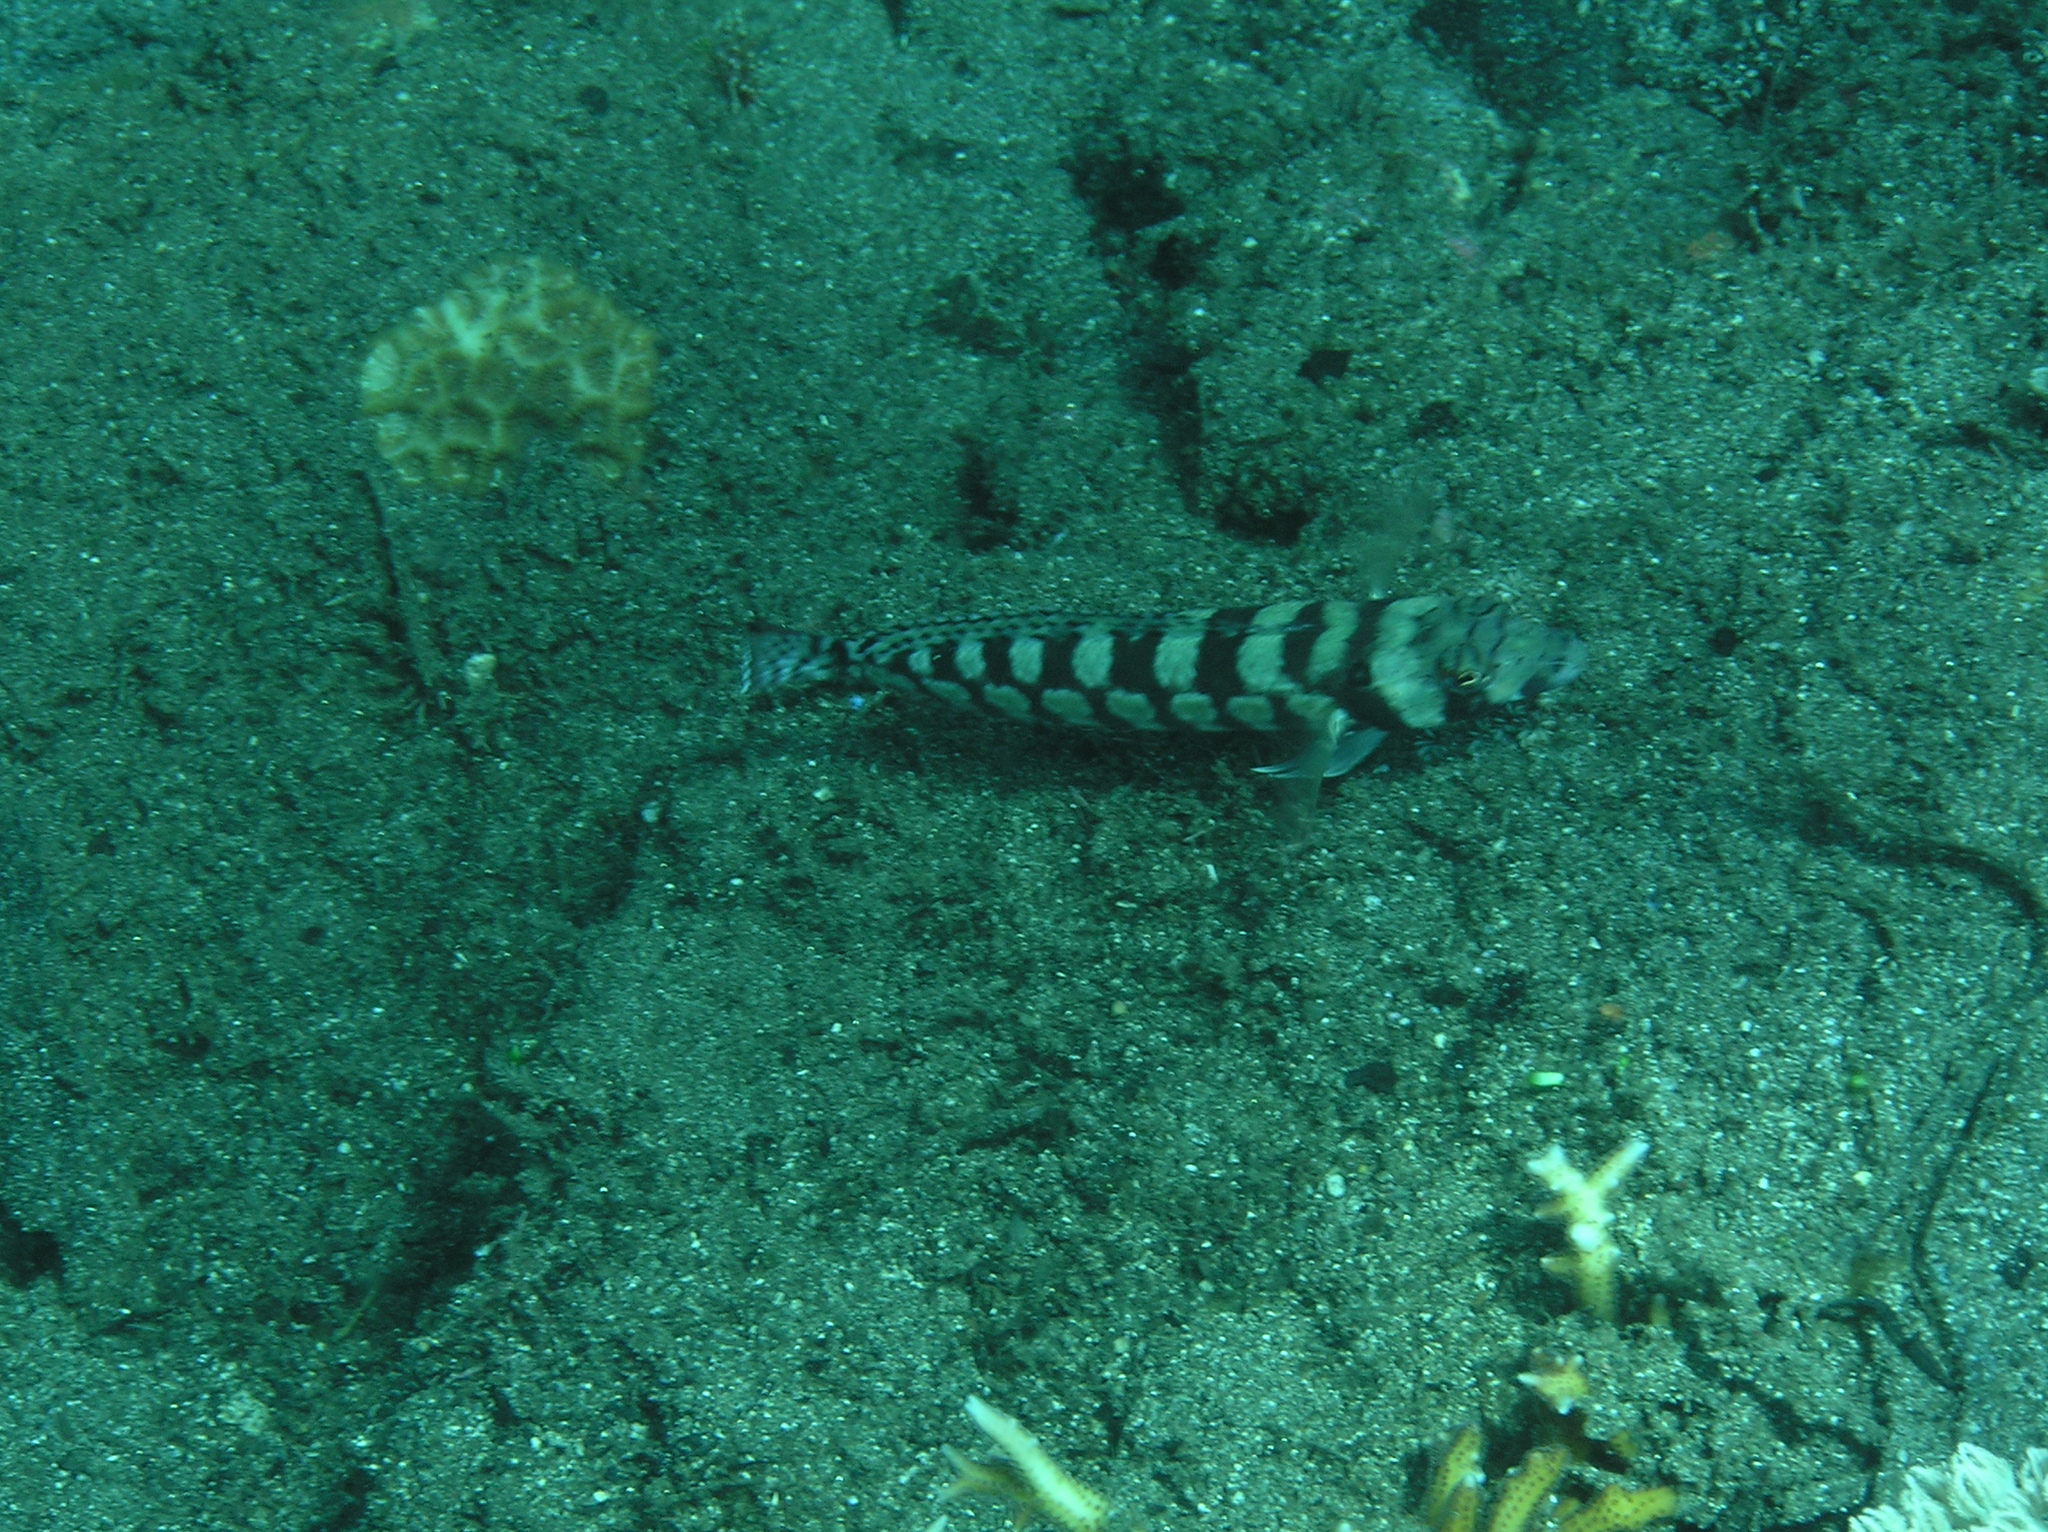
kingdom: Animalia
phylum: Chordata
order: Perciformes
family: Pinguipedidae
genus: Parapercis
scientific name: Parapercis tetracantha
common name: Black-banded grubfish
